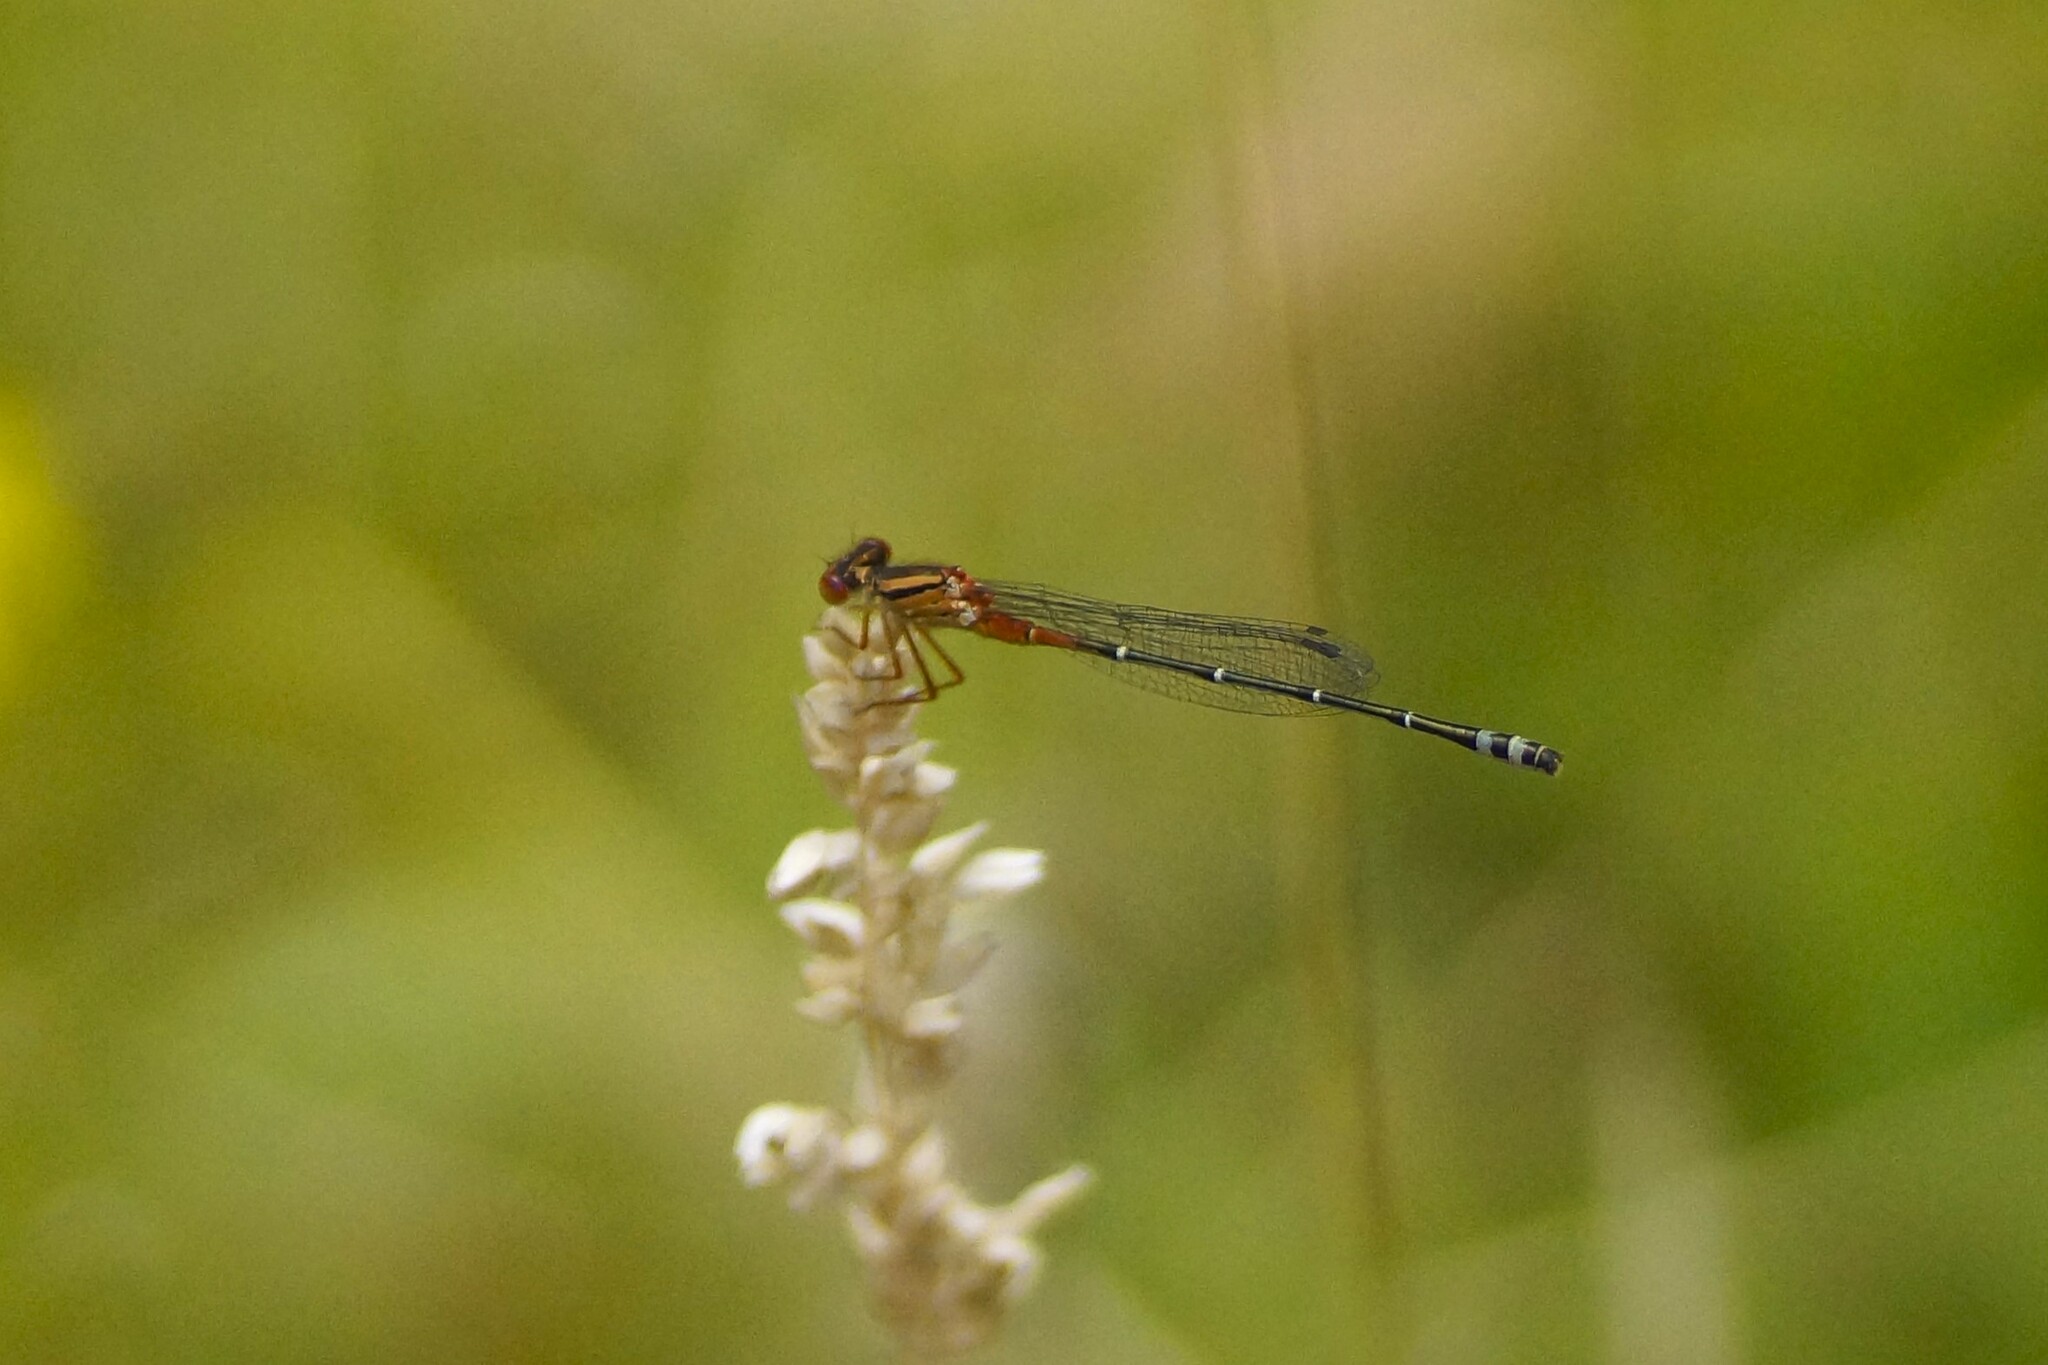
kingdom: Animalia
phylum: Arthropoda
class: Insecta
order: Odonata
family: Coenagrionidae
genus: Xanthagrion
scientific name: Xanthagrion erythroneurum
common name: Red and blue damsel
